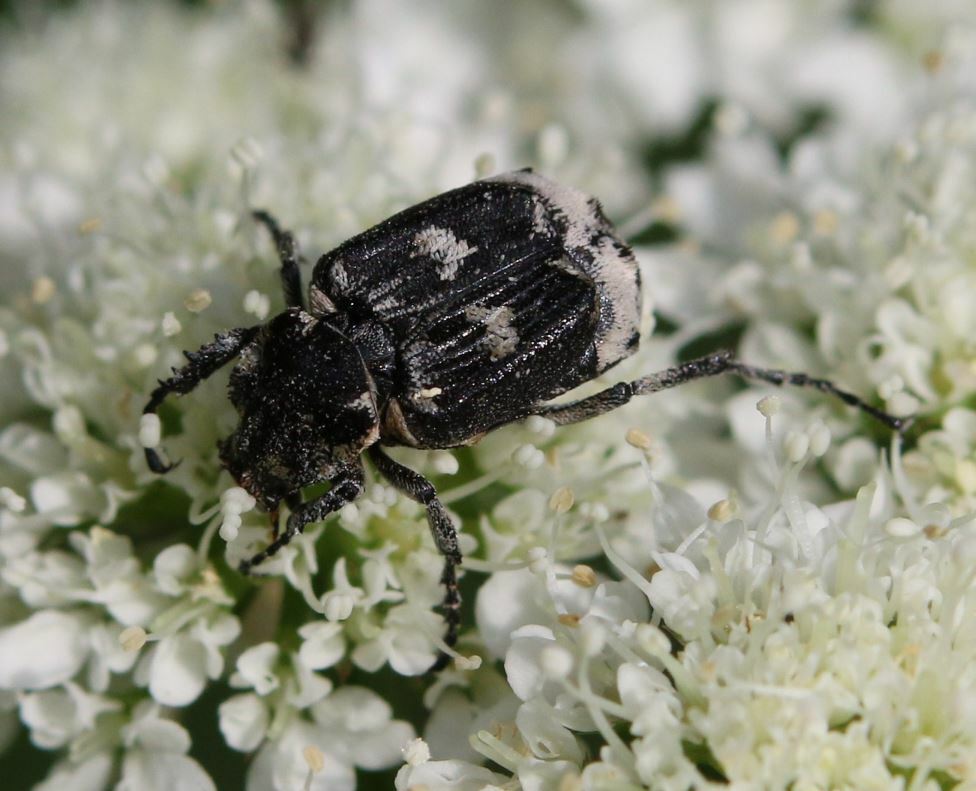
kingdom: Animalia
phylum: Arthropoda
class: Insecta
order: Coleoptera
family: Scarabaeidae
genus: Valgus
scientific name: Valgus hemipterus
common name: Bug flower chafer
